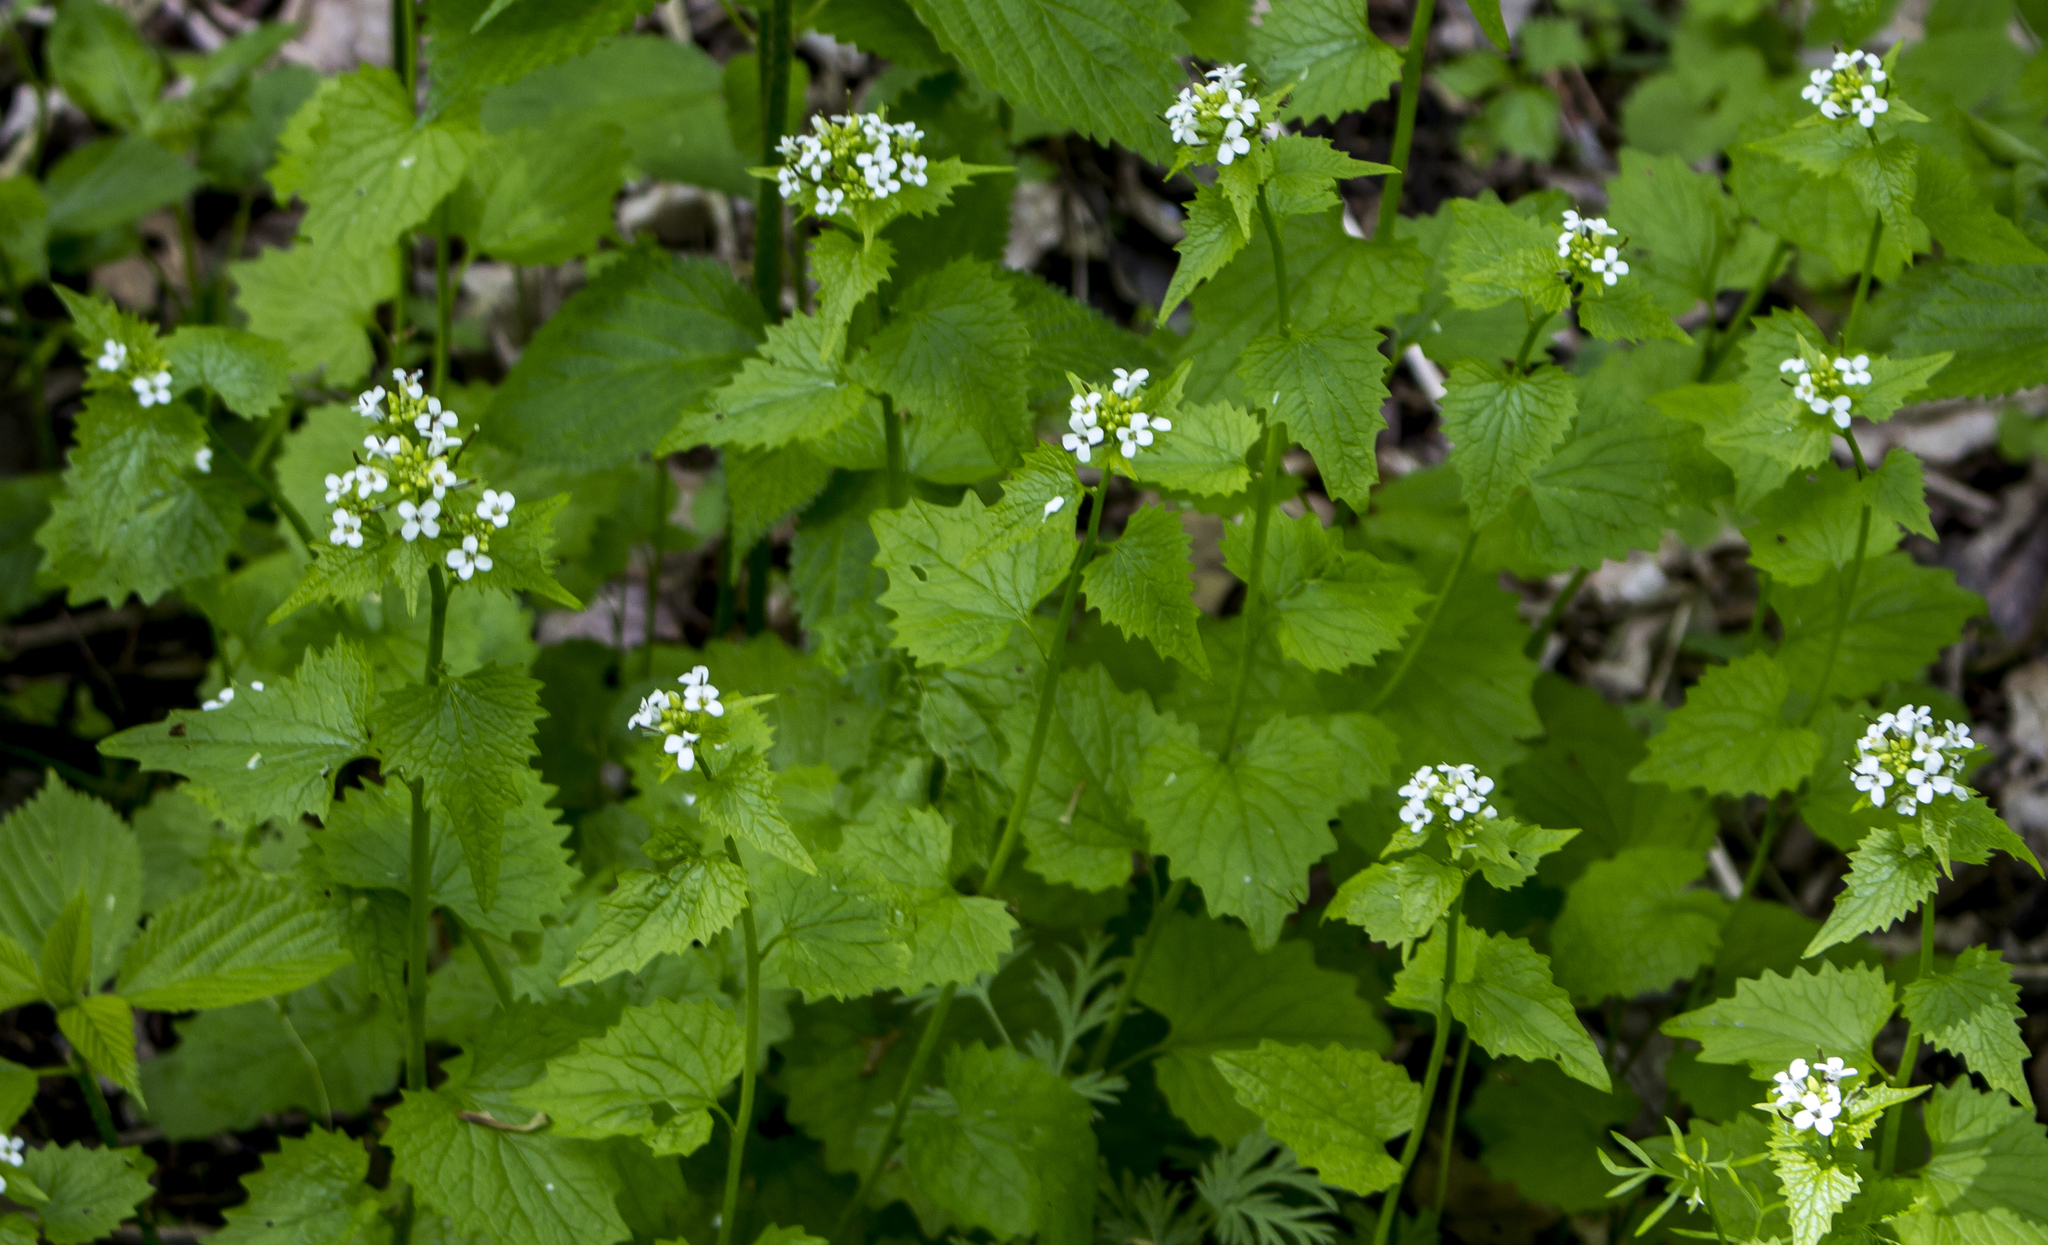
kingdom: Plantae
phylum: Tracheophyta
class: Magnoliopsida
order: Brassicales
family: Brassicaceae
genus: Alliaria
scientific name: Alliaria petiolata
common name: Garlic mustard
